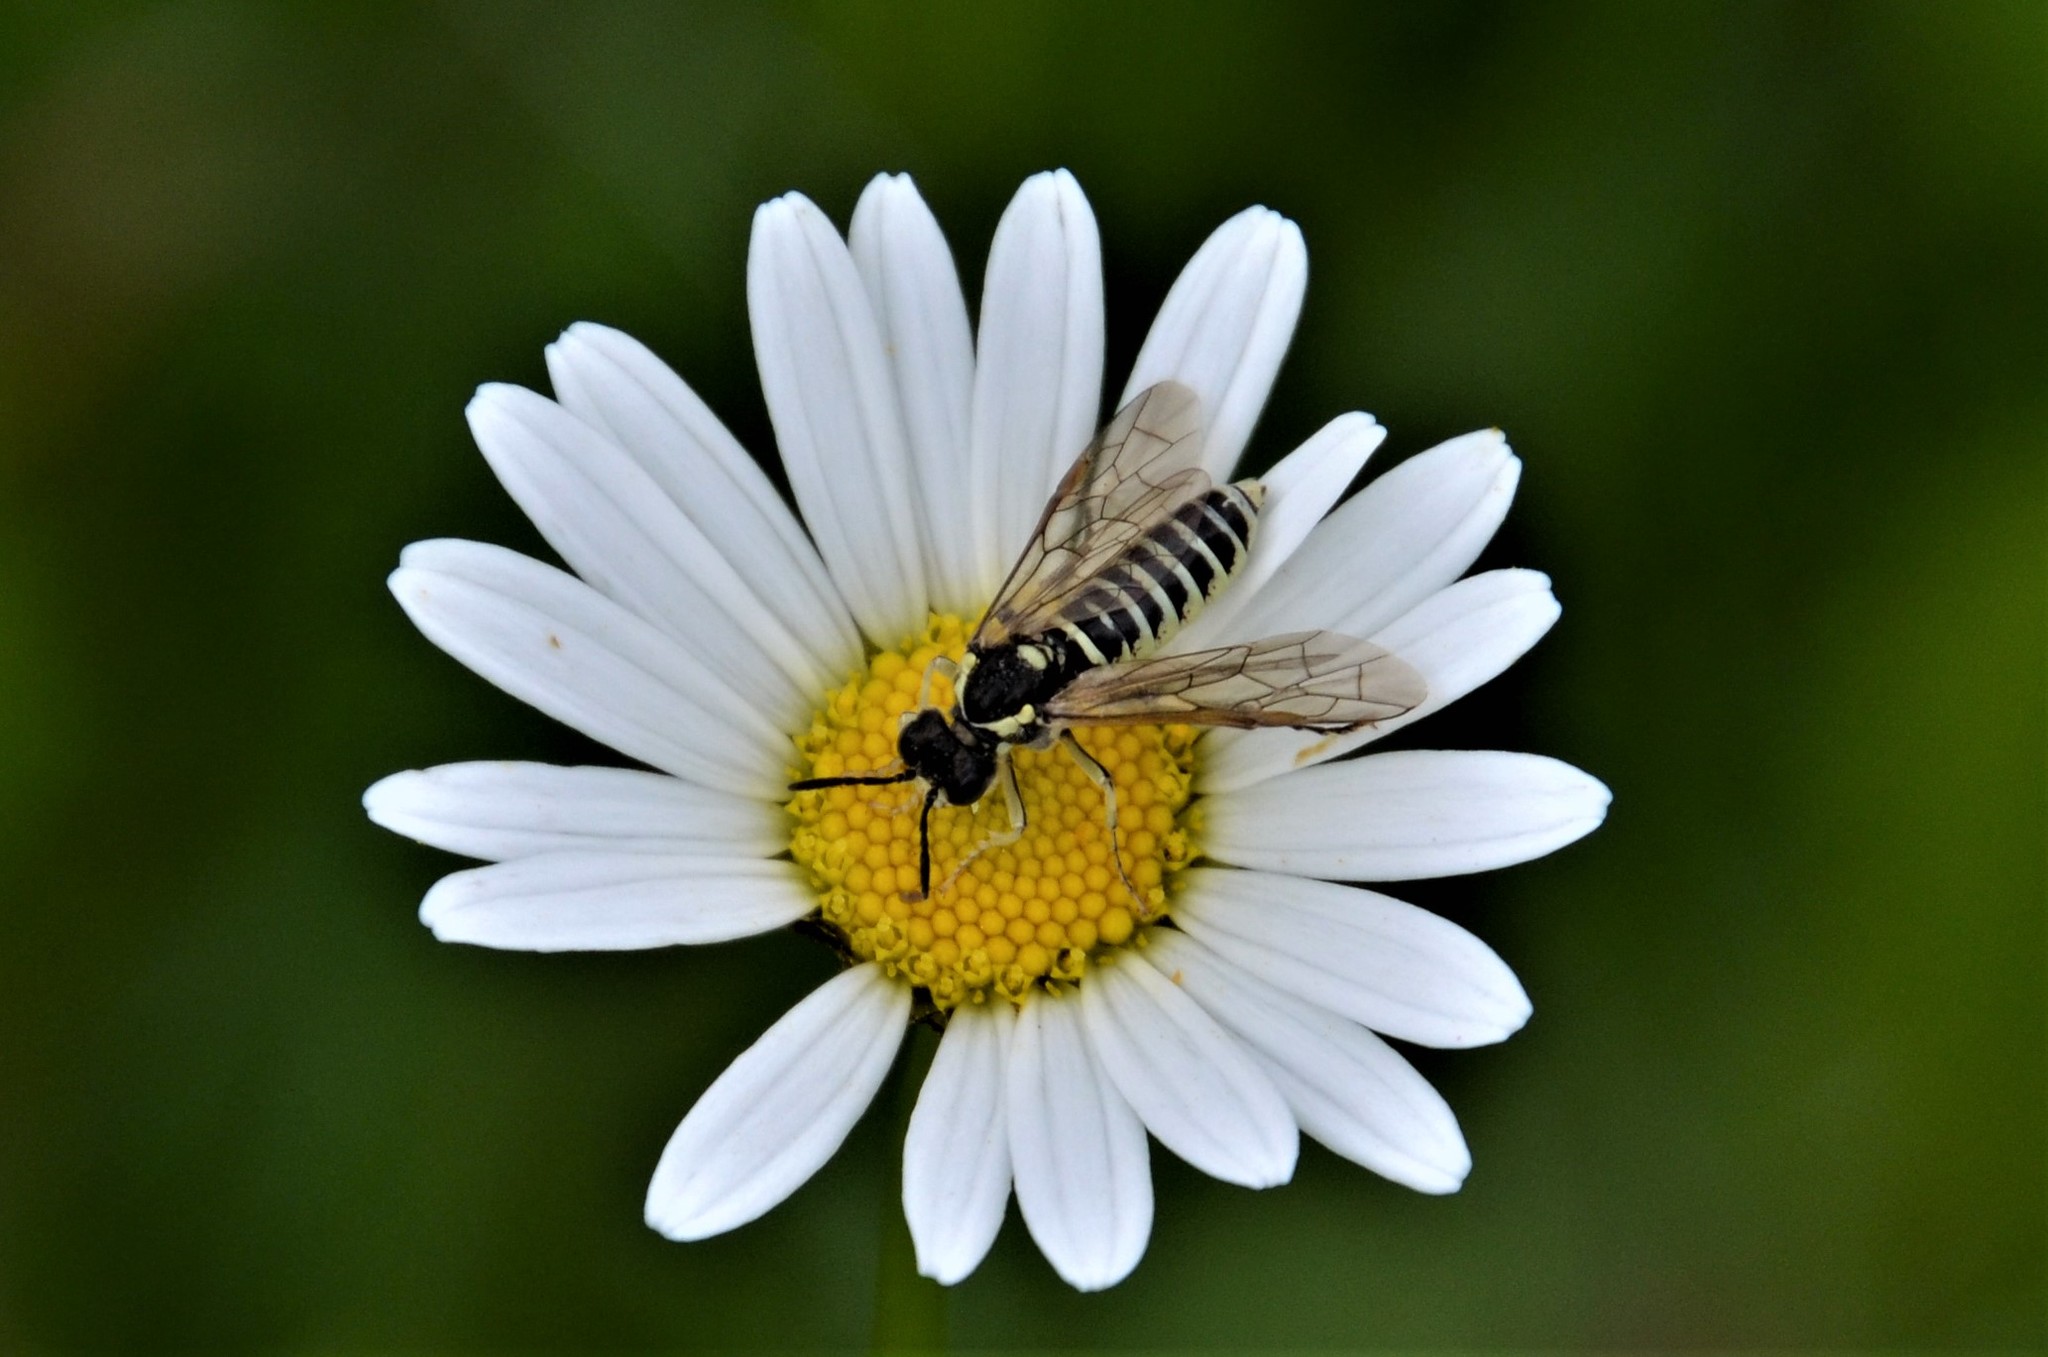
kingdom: Animalia
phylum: Arthropoda
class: Insecta
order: Hymenoptera
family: Tenthredinidae
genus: Tenthredo
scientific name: Tenthredo arcuata
